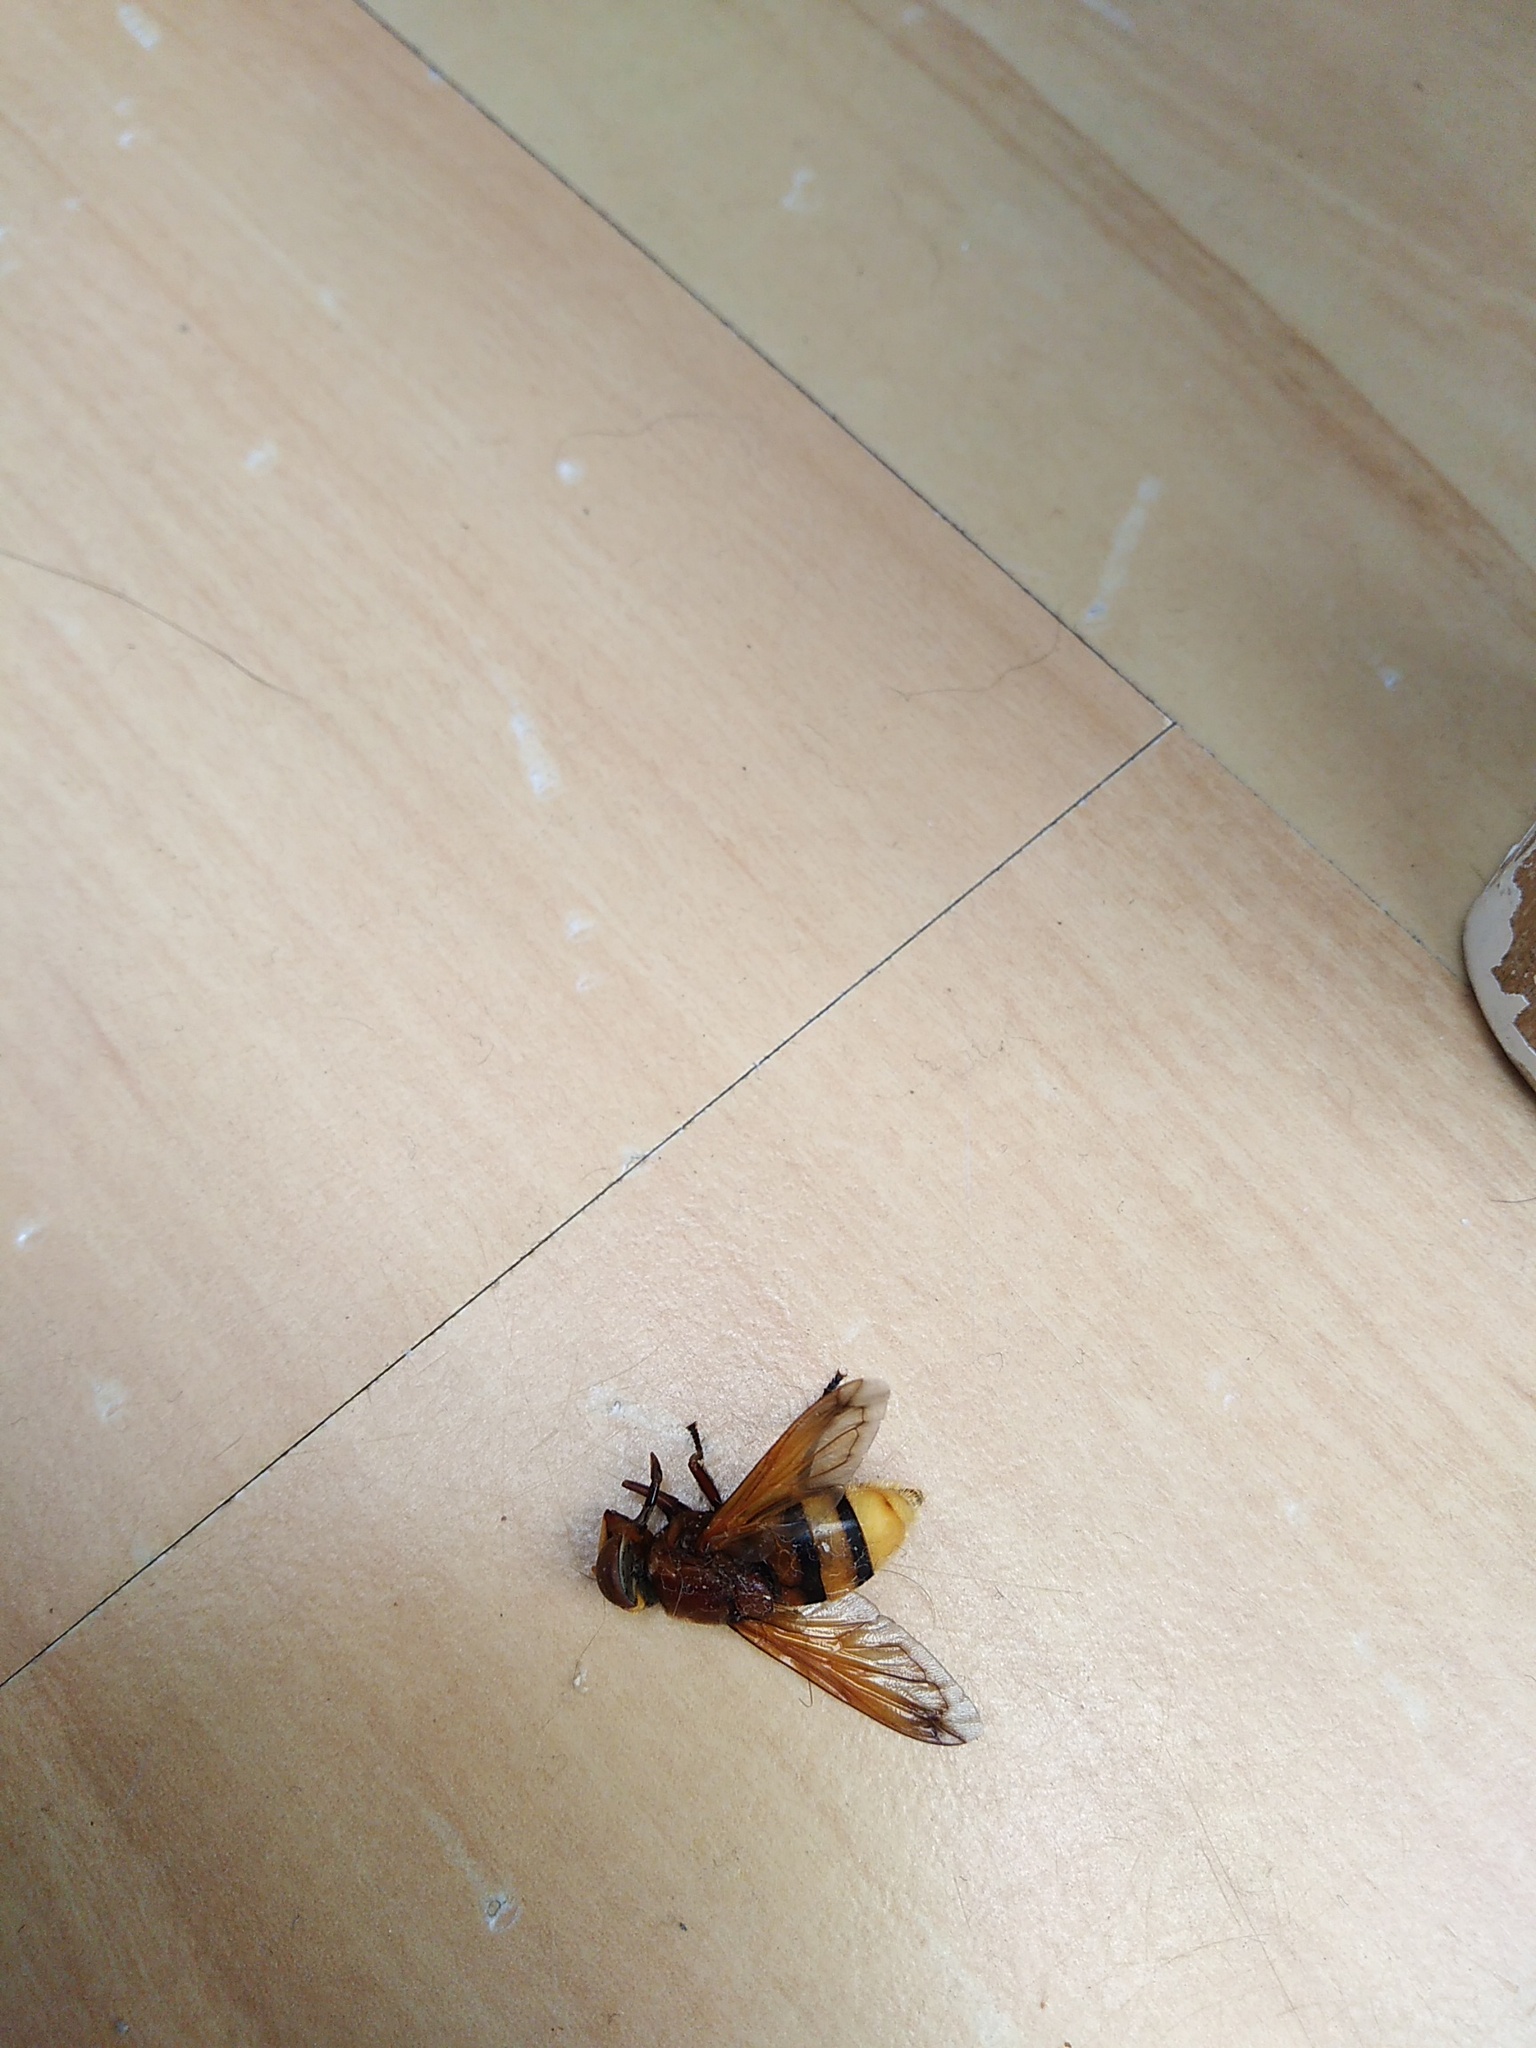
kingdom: Animalia
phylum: Arthropoda
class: Insecta
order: Diptera
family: Syrphidae
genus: Volucella
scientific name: Volucella zonaria
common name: Hornet hoverfly
